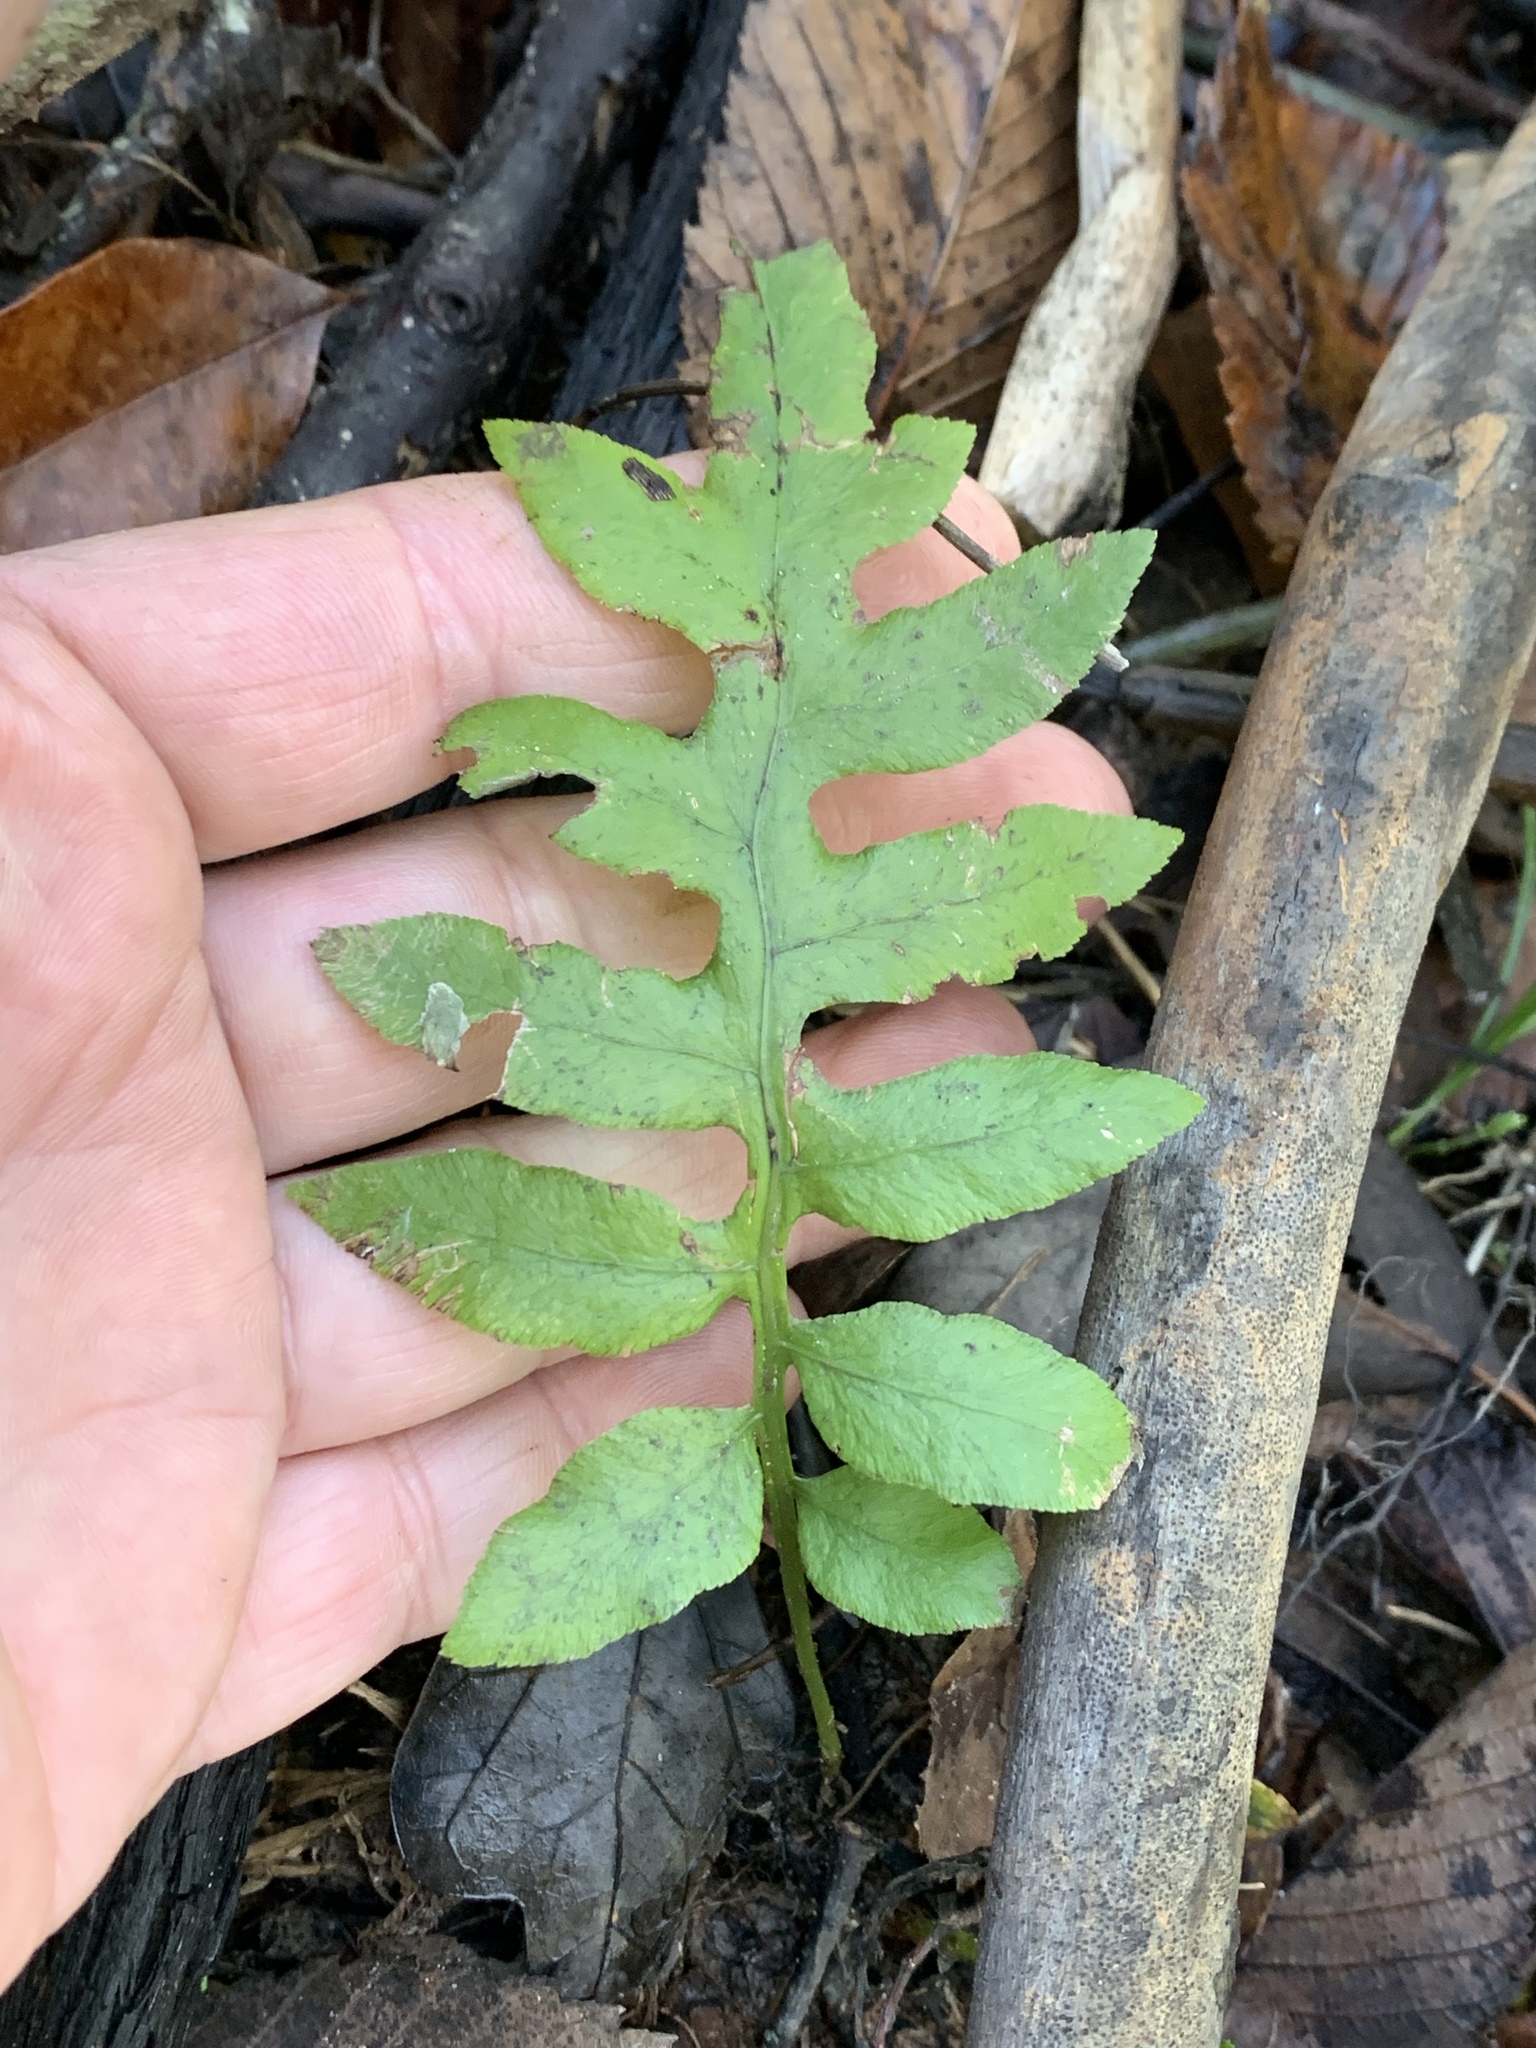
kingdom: Plantae
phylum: Tracheophyta
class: Polypodiopsida
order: Polypodiales
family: Blechnaceae
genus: Lorinseria
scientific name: Lorinseria areolata
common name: Dwarf chain fern
